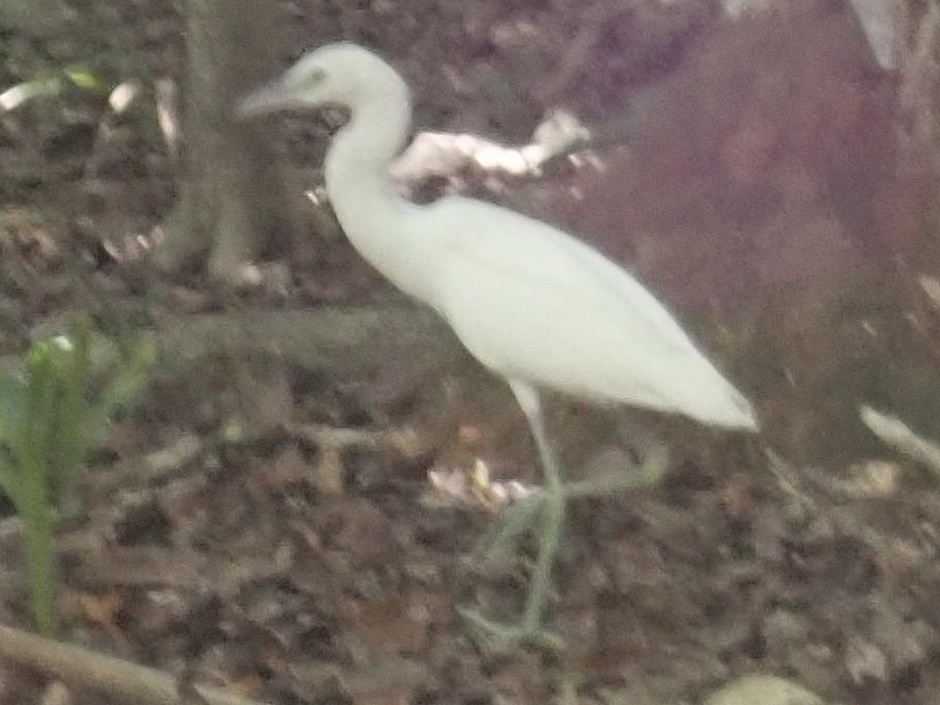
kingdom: Animalia
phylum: Chordata
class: Aves
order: Pelecaniformes
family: Ardeidae
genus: Egretta
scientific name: Egretta caerulea
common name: Little blue heron
